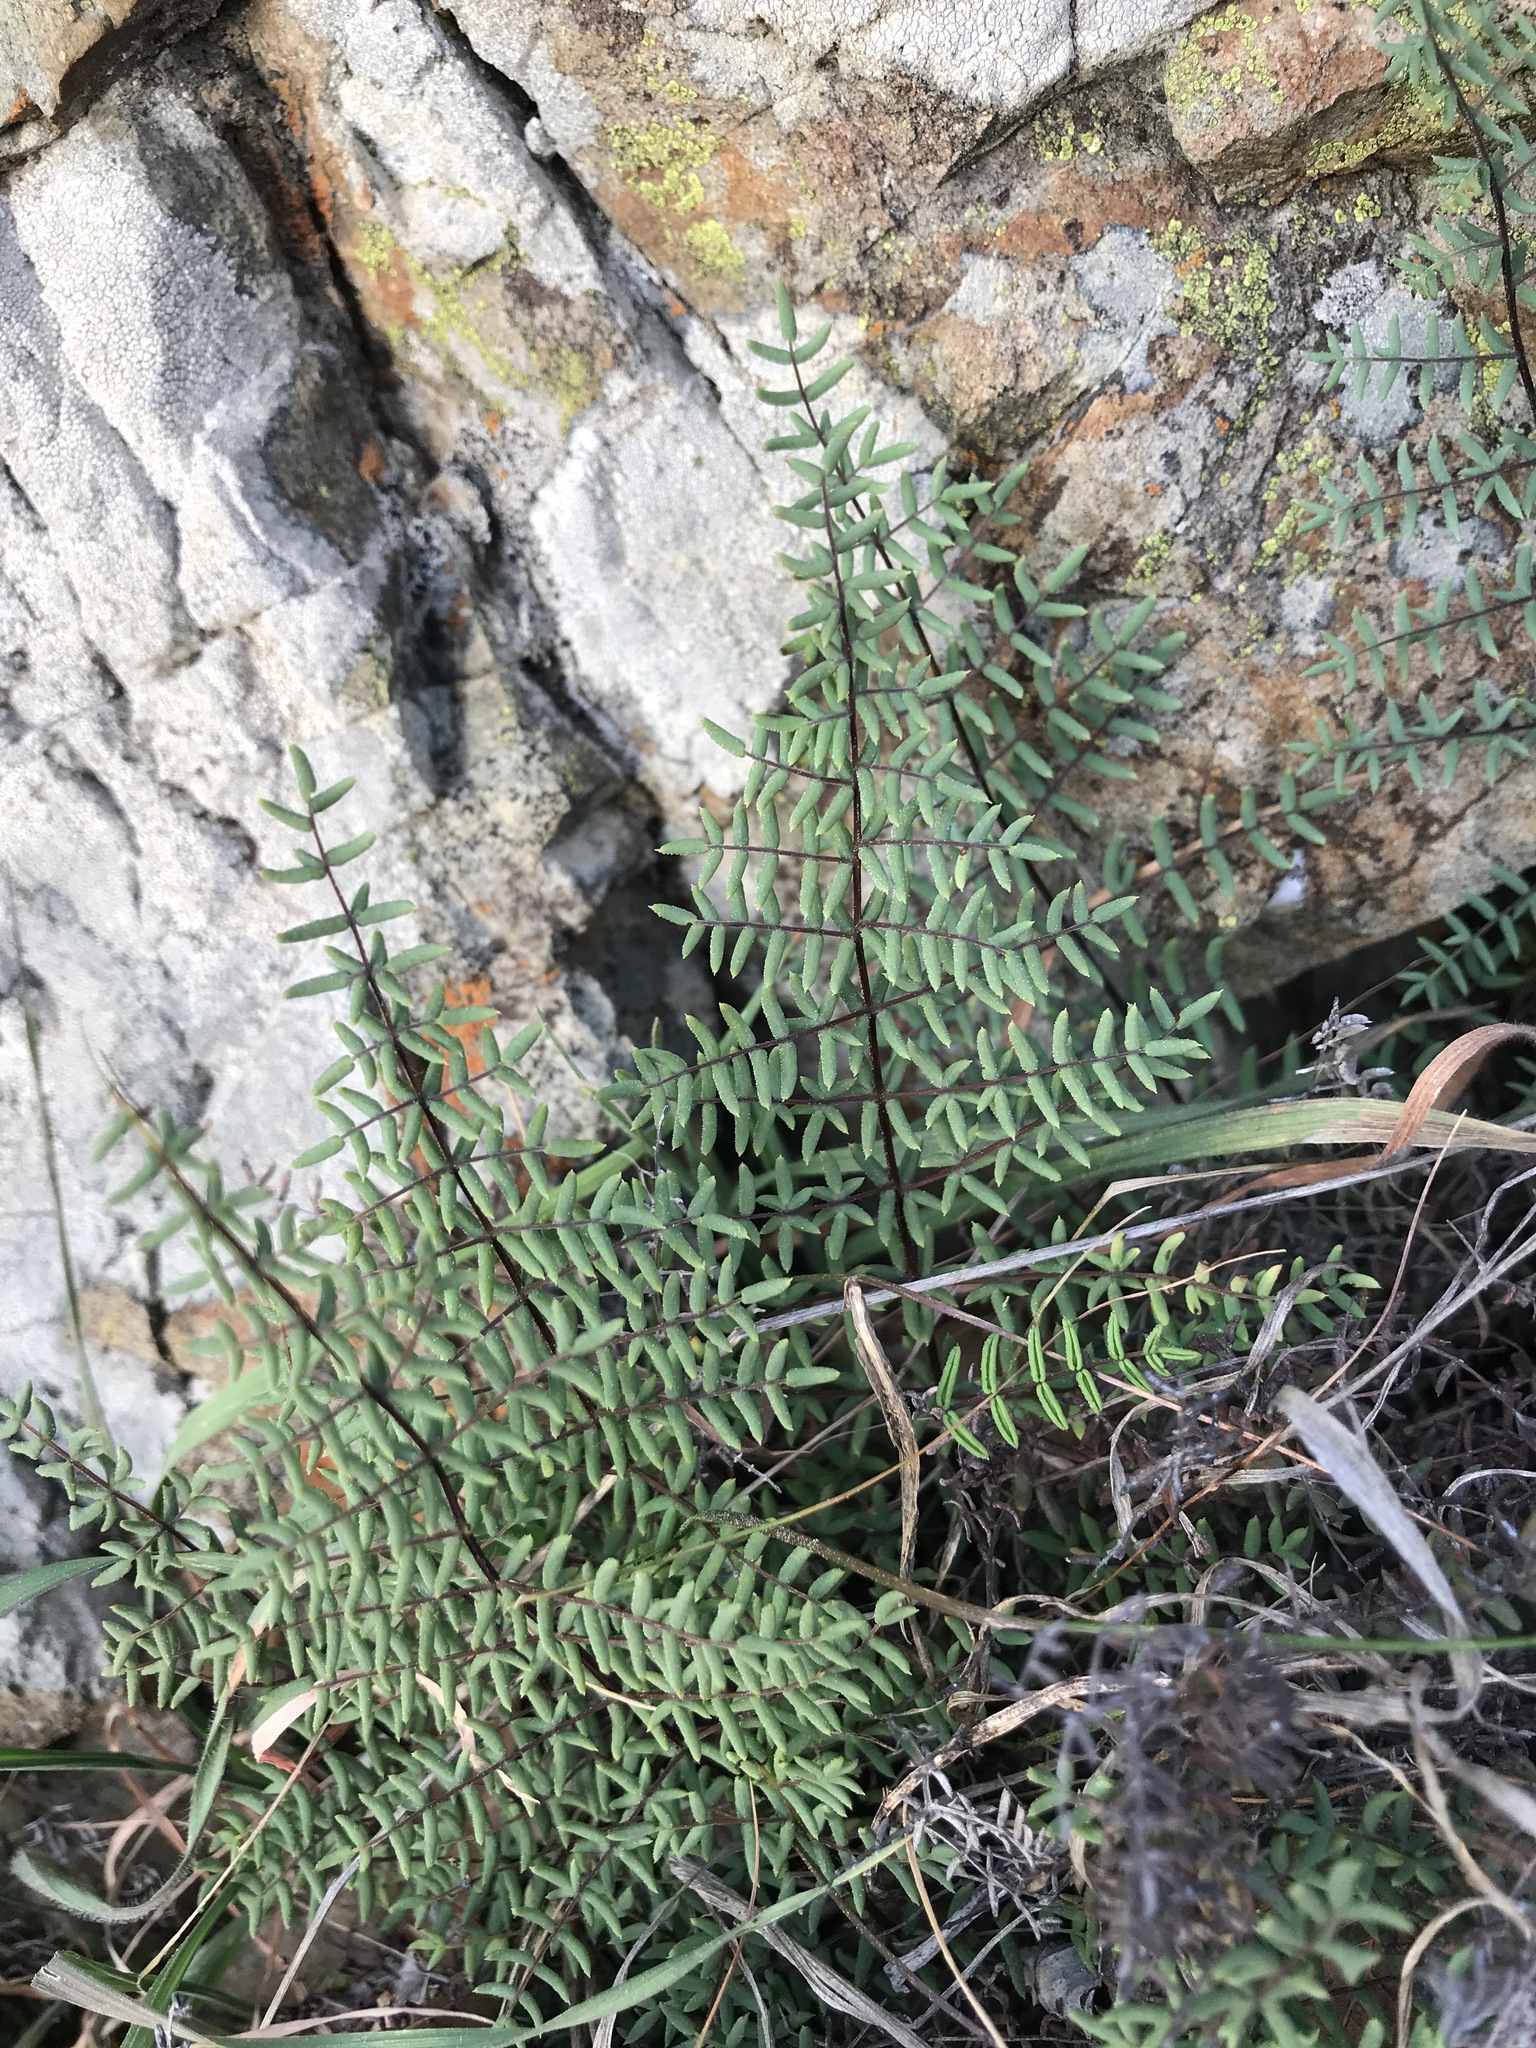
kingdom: Plantae
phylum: Tracheophyta
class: Polypodiopsida
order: Polypodiales
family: Pteridaceae
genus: Pellaea
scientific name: Pellaea mucronata
